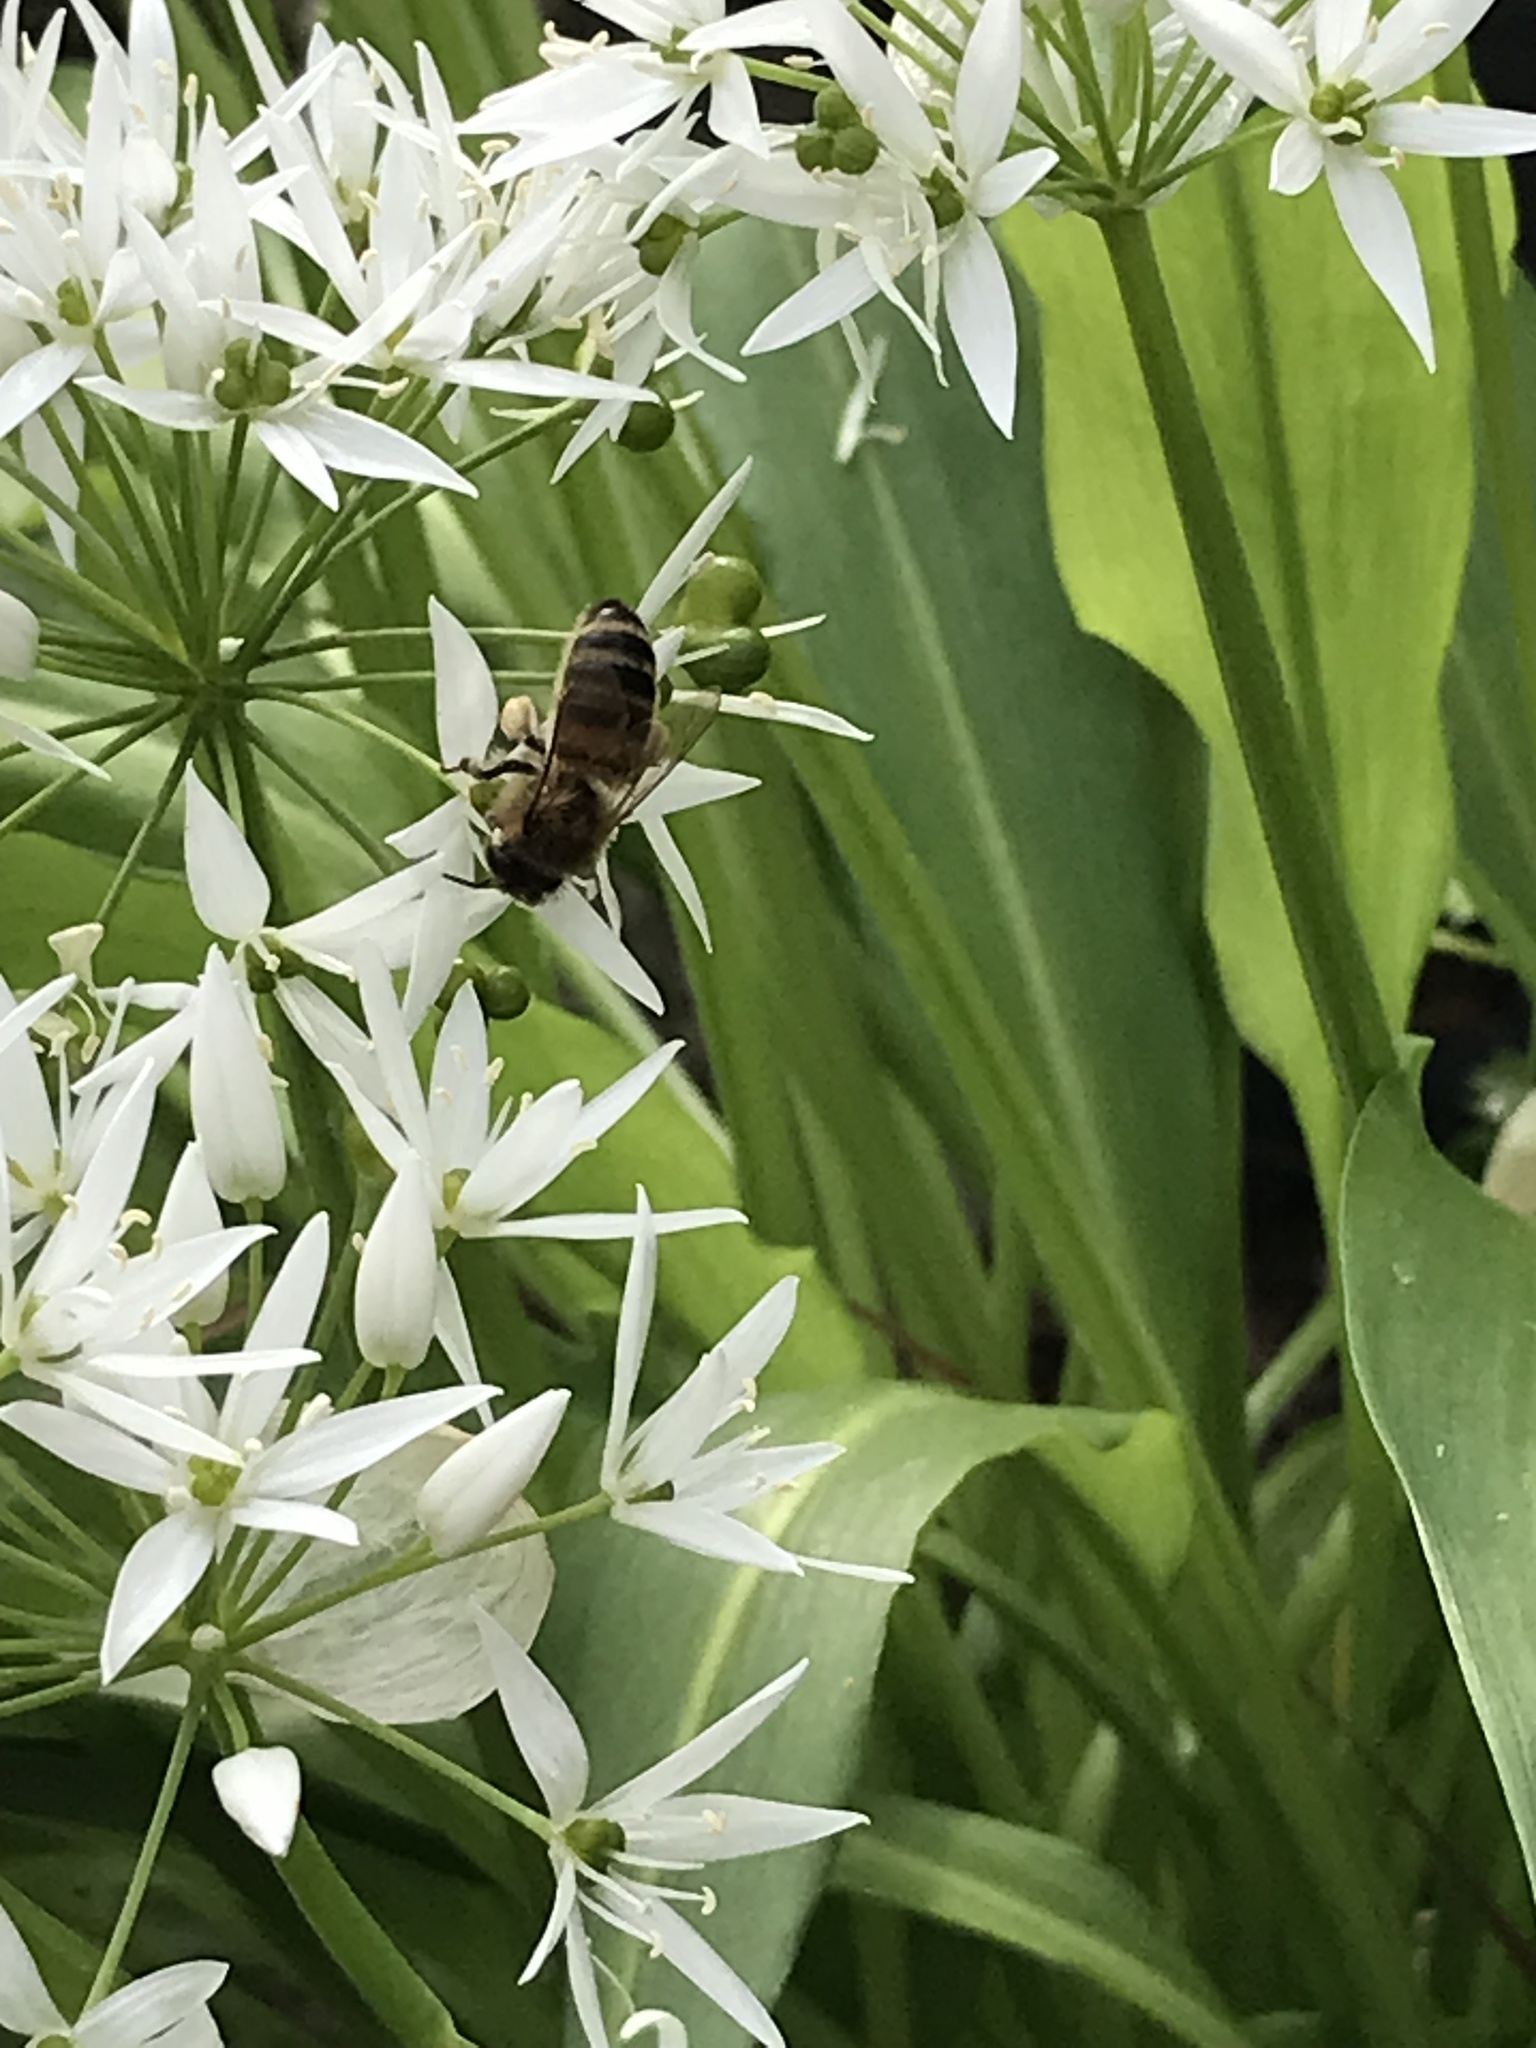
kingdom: Animalia
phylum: Arthropoda
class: Insecta
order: Hymenoptera
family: Apidae
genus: Apis
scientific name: Apis mellifera
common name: Honey bee
